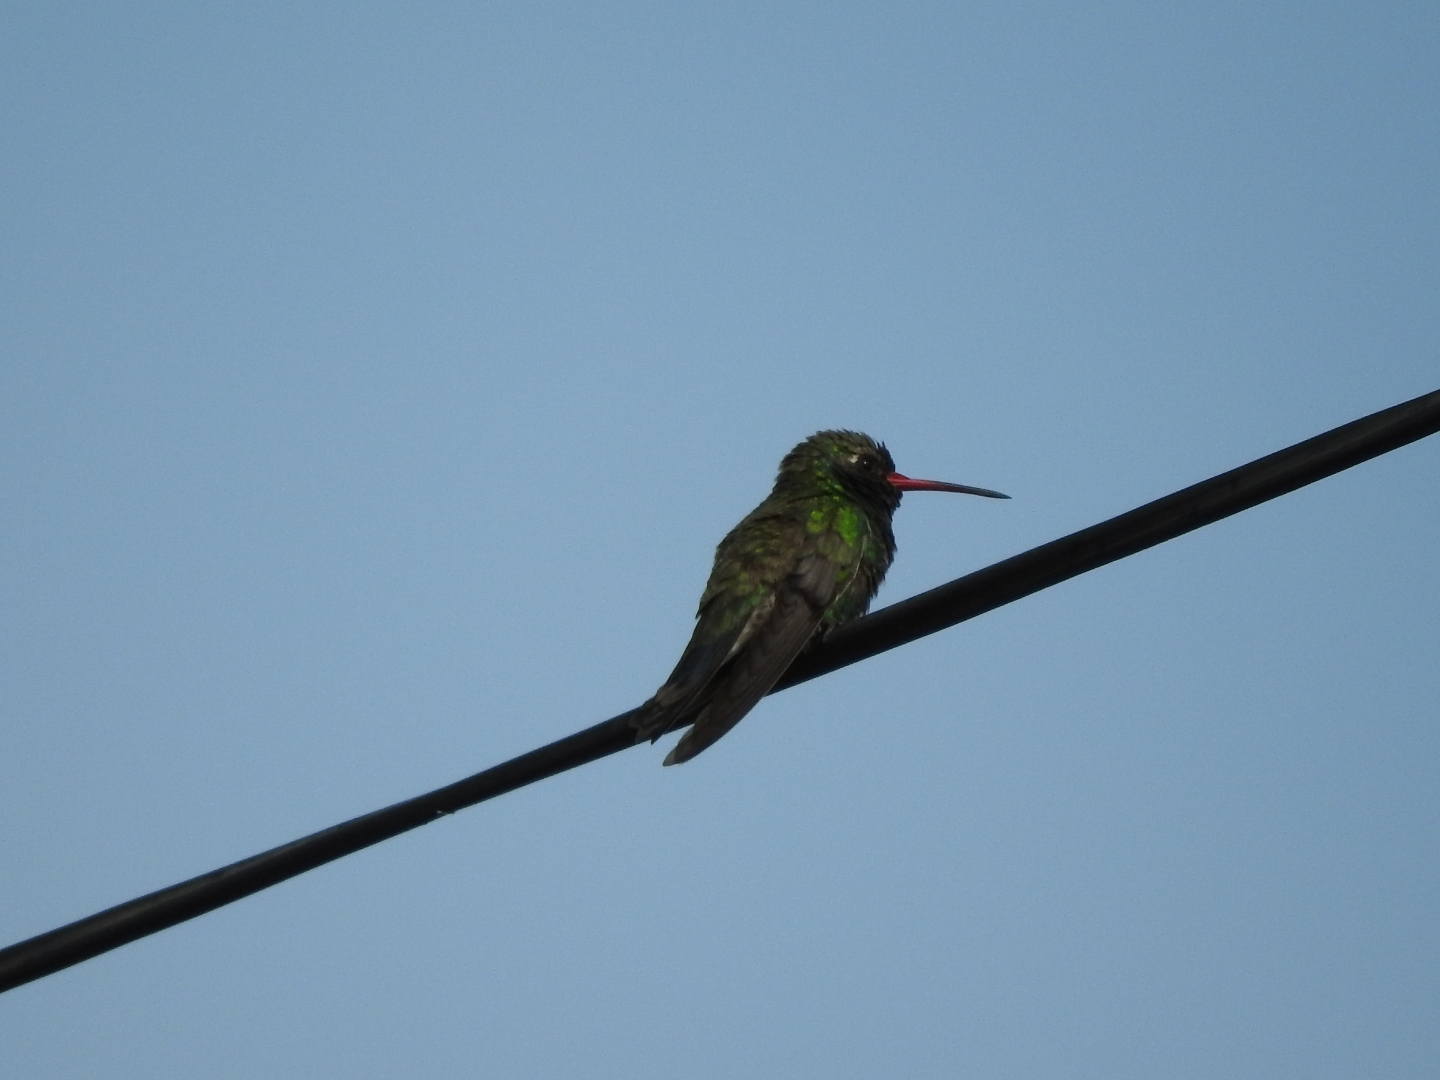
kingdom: Animalia
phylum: Chordata
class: Aves
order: Apodiformes
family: Trochilidae
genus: Cynanthus
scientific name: Cynanthus latirostris
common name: Broad-billed hummingbird
